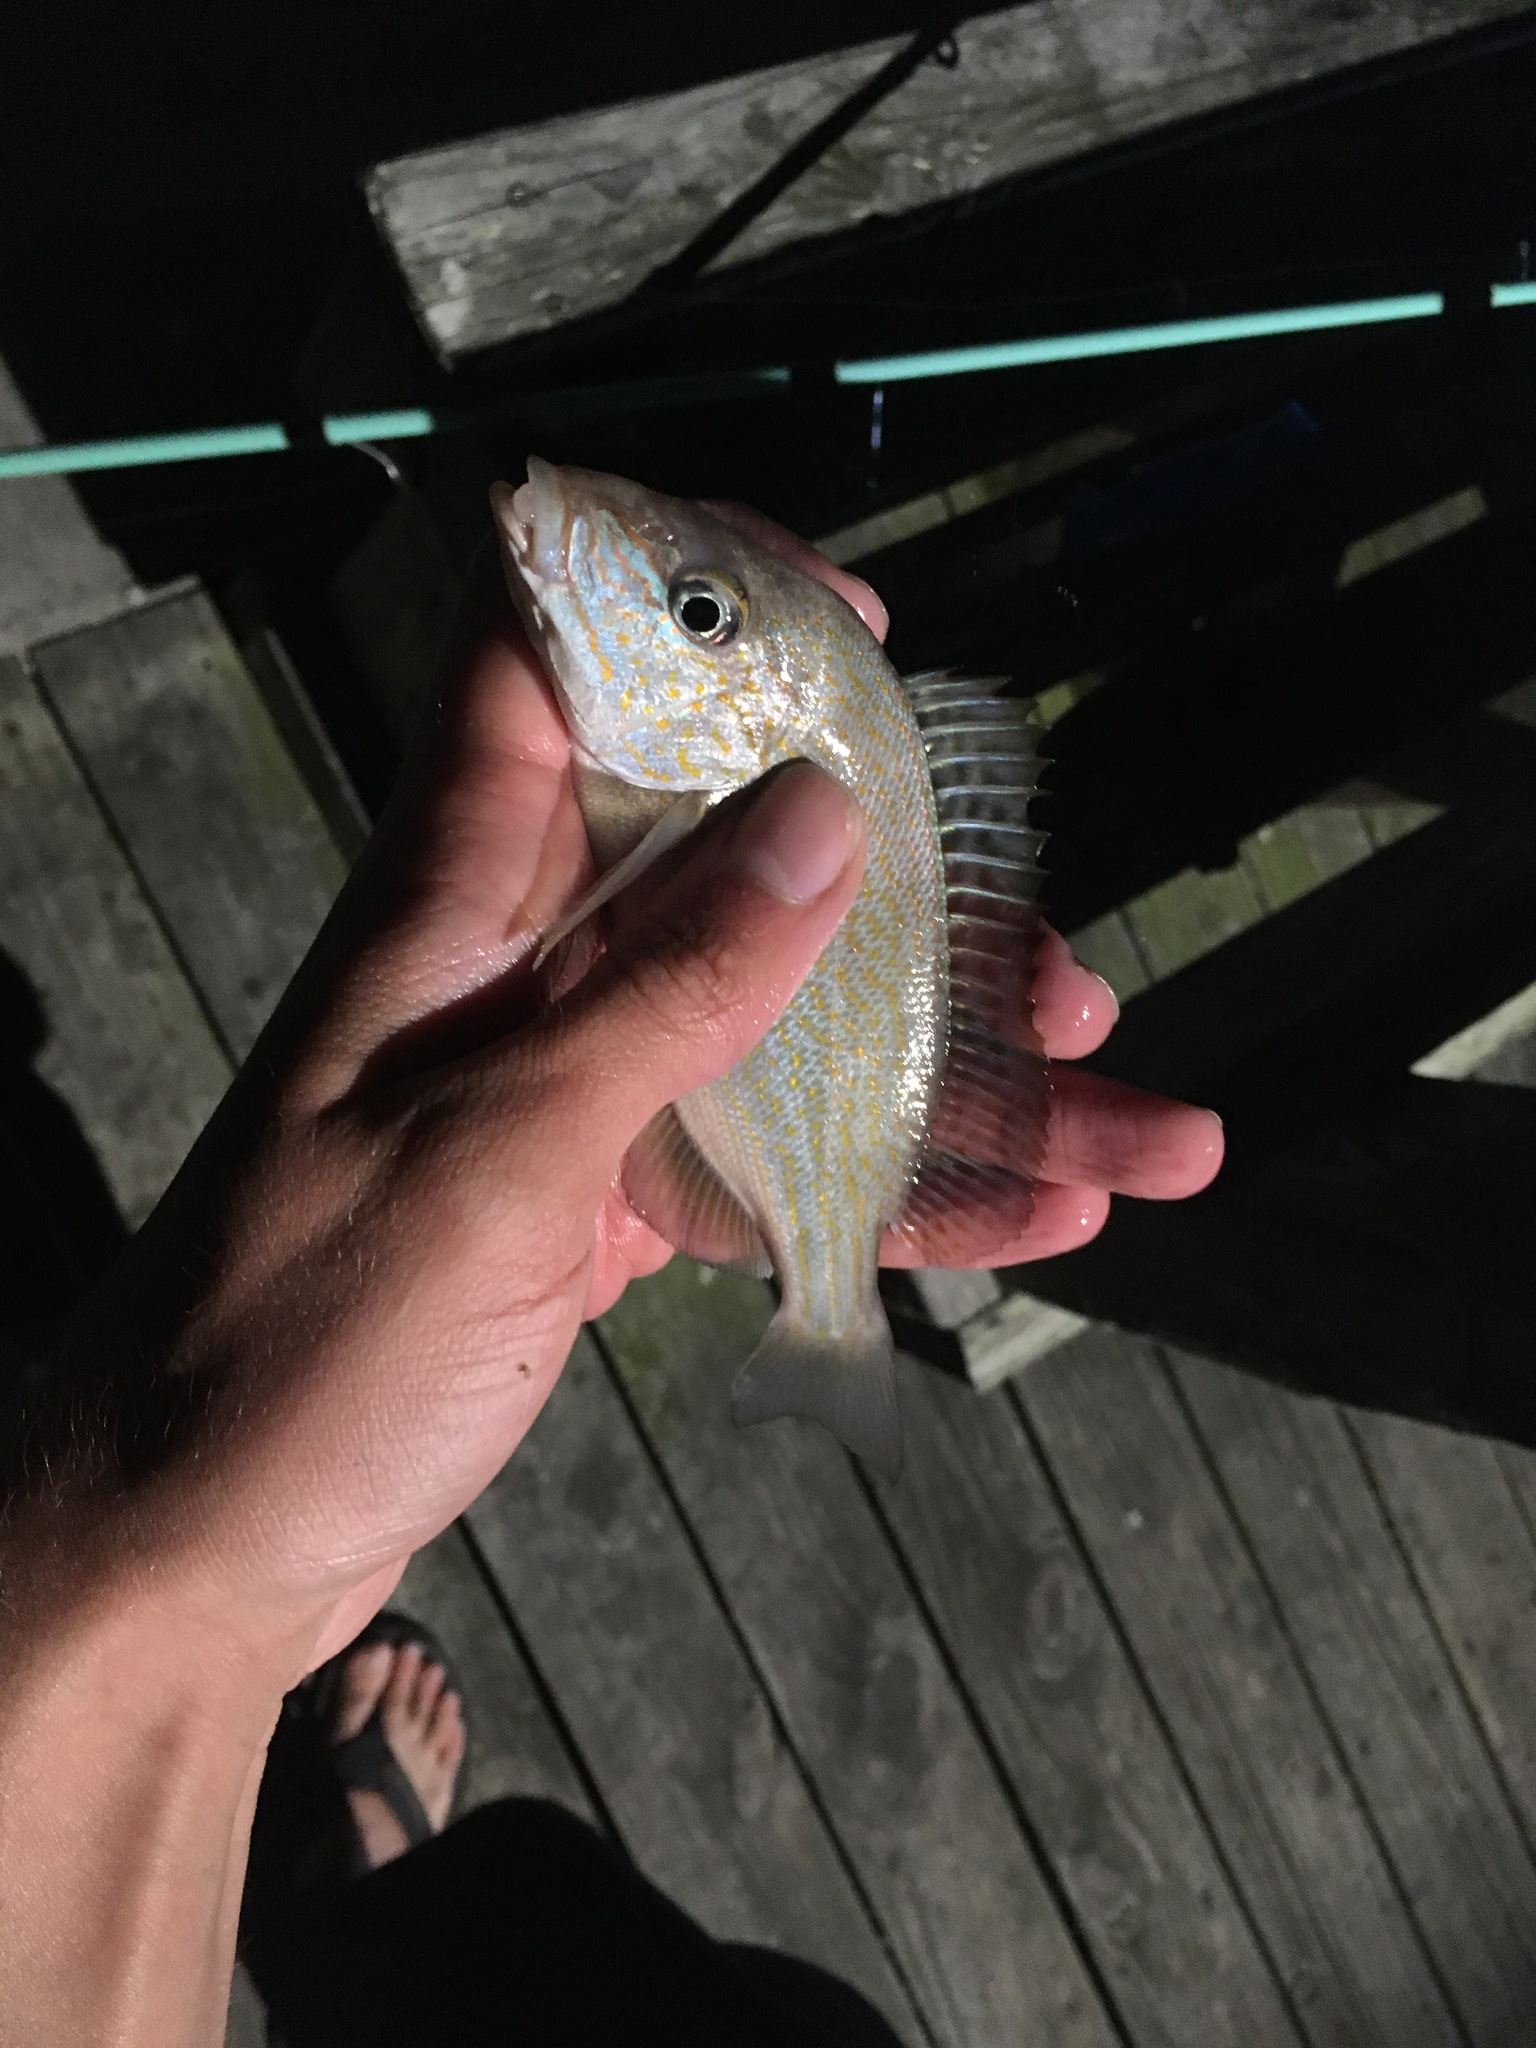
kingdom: Animalia
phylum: Chordata
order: Perciformes
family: Haemulidae
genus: Orthopristis
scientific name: Orthopristis chrysoptera
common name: Pigfish
